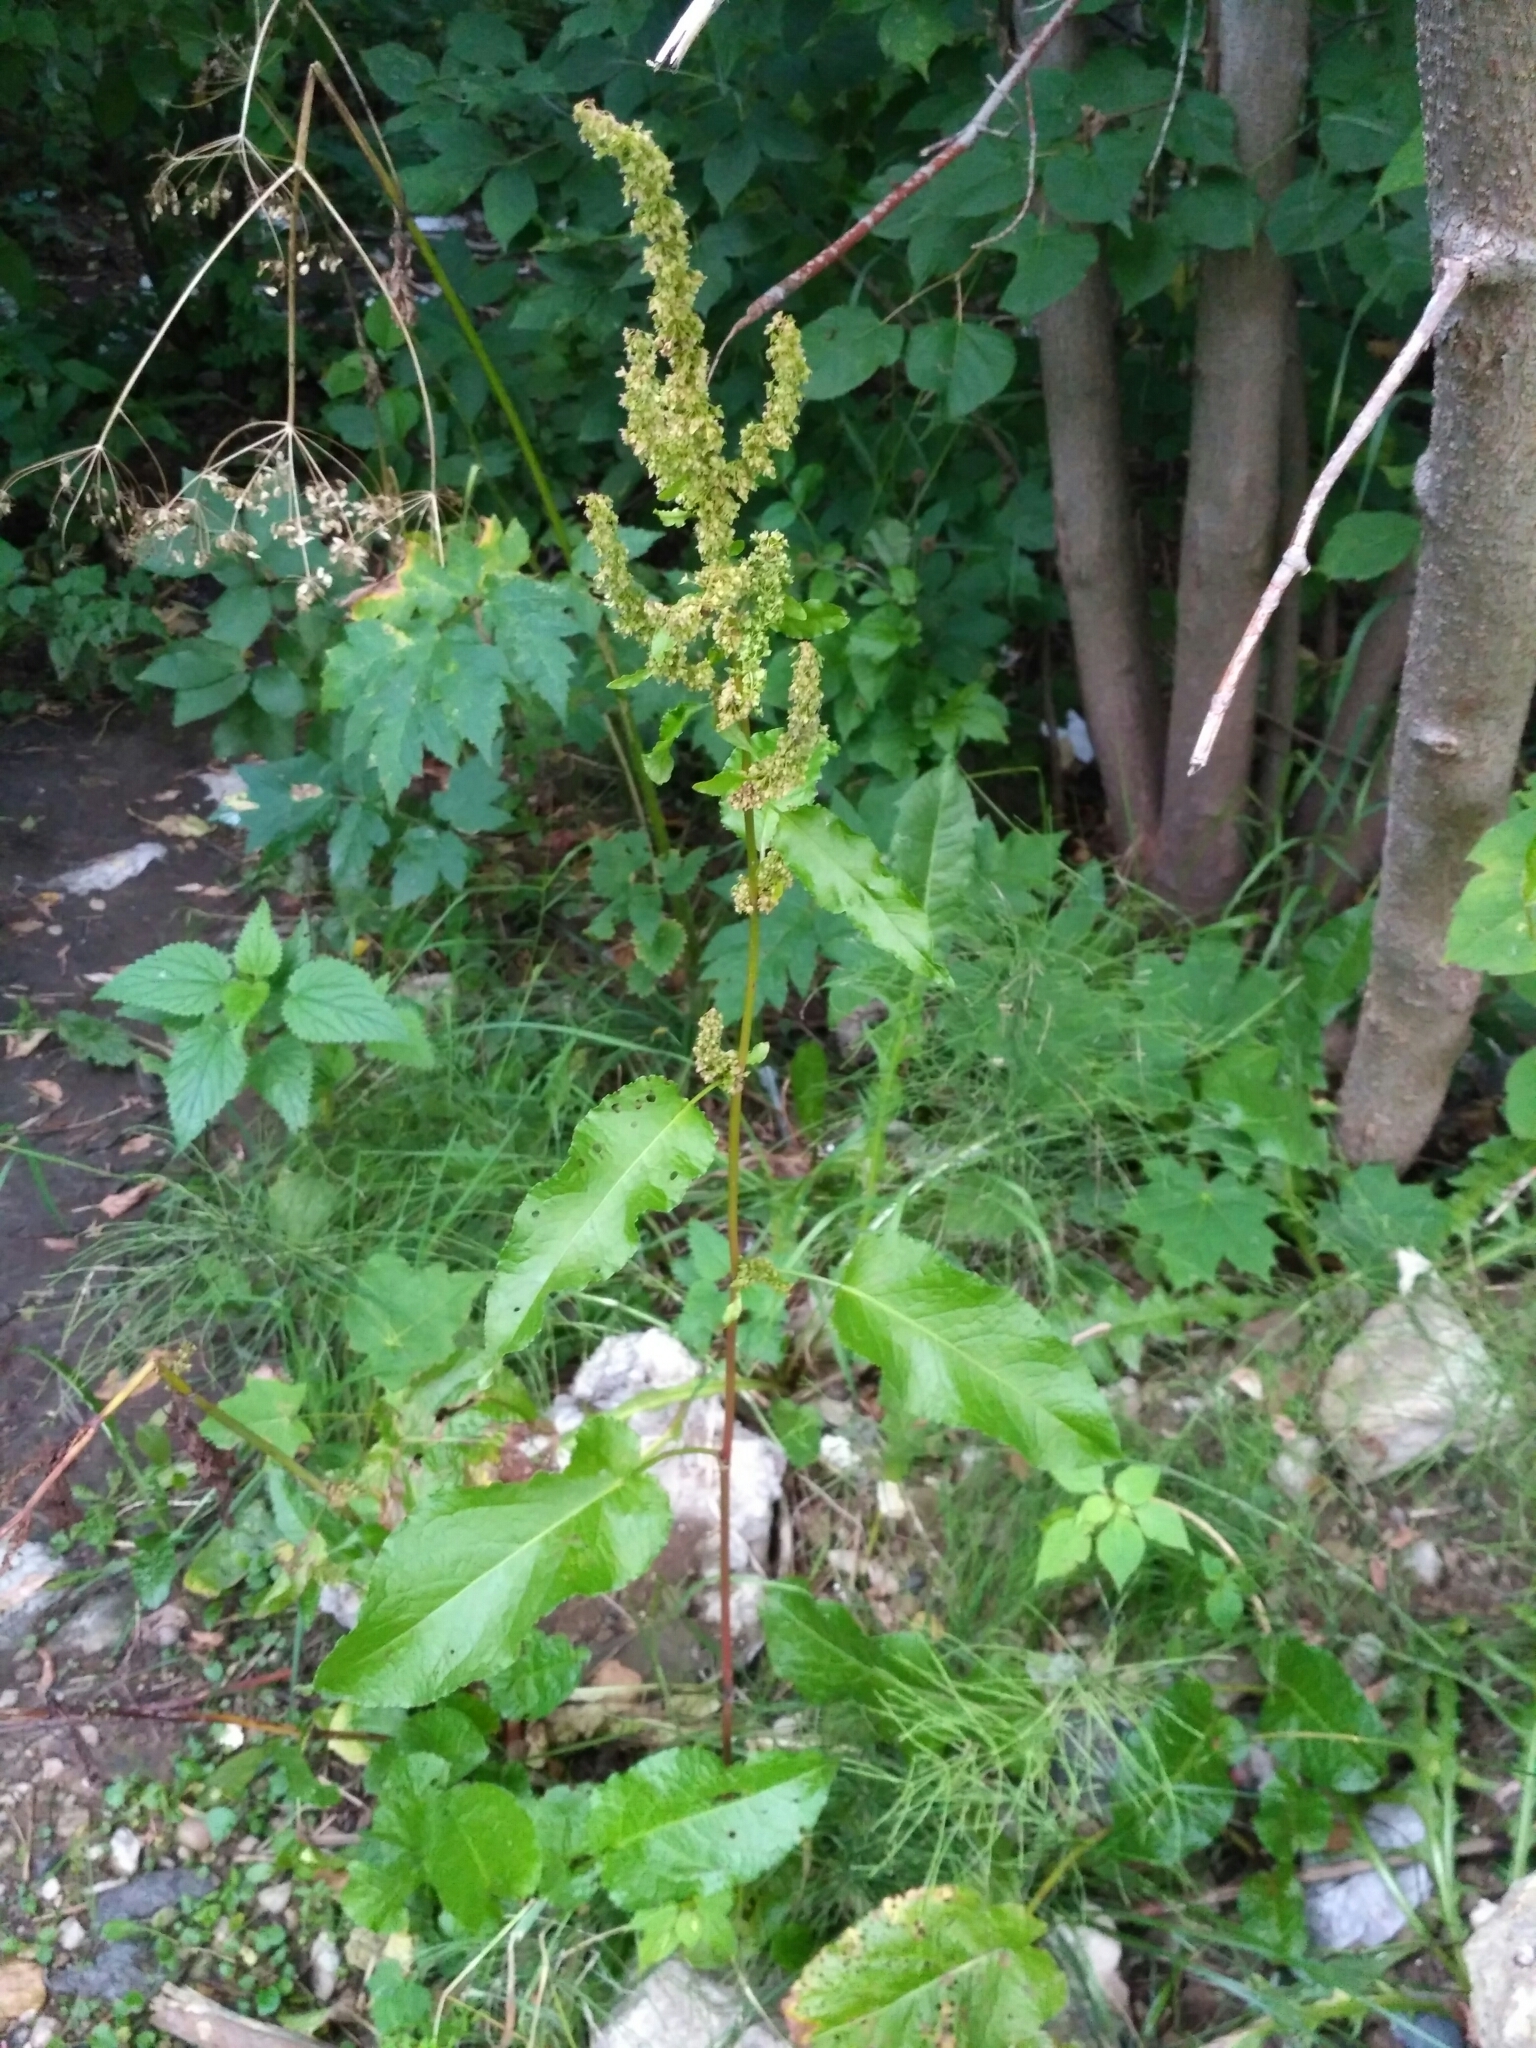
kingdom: Plantae
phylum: Tracheophyta
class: Magnoliopsida
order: Caryophyllales
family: Polygonaceae
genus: Rumex
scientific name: Rumex obtusifolius
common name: Bitter dock
